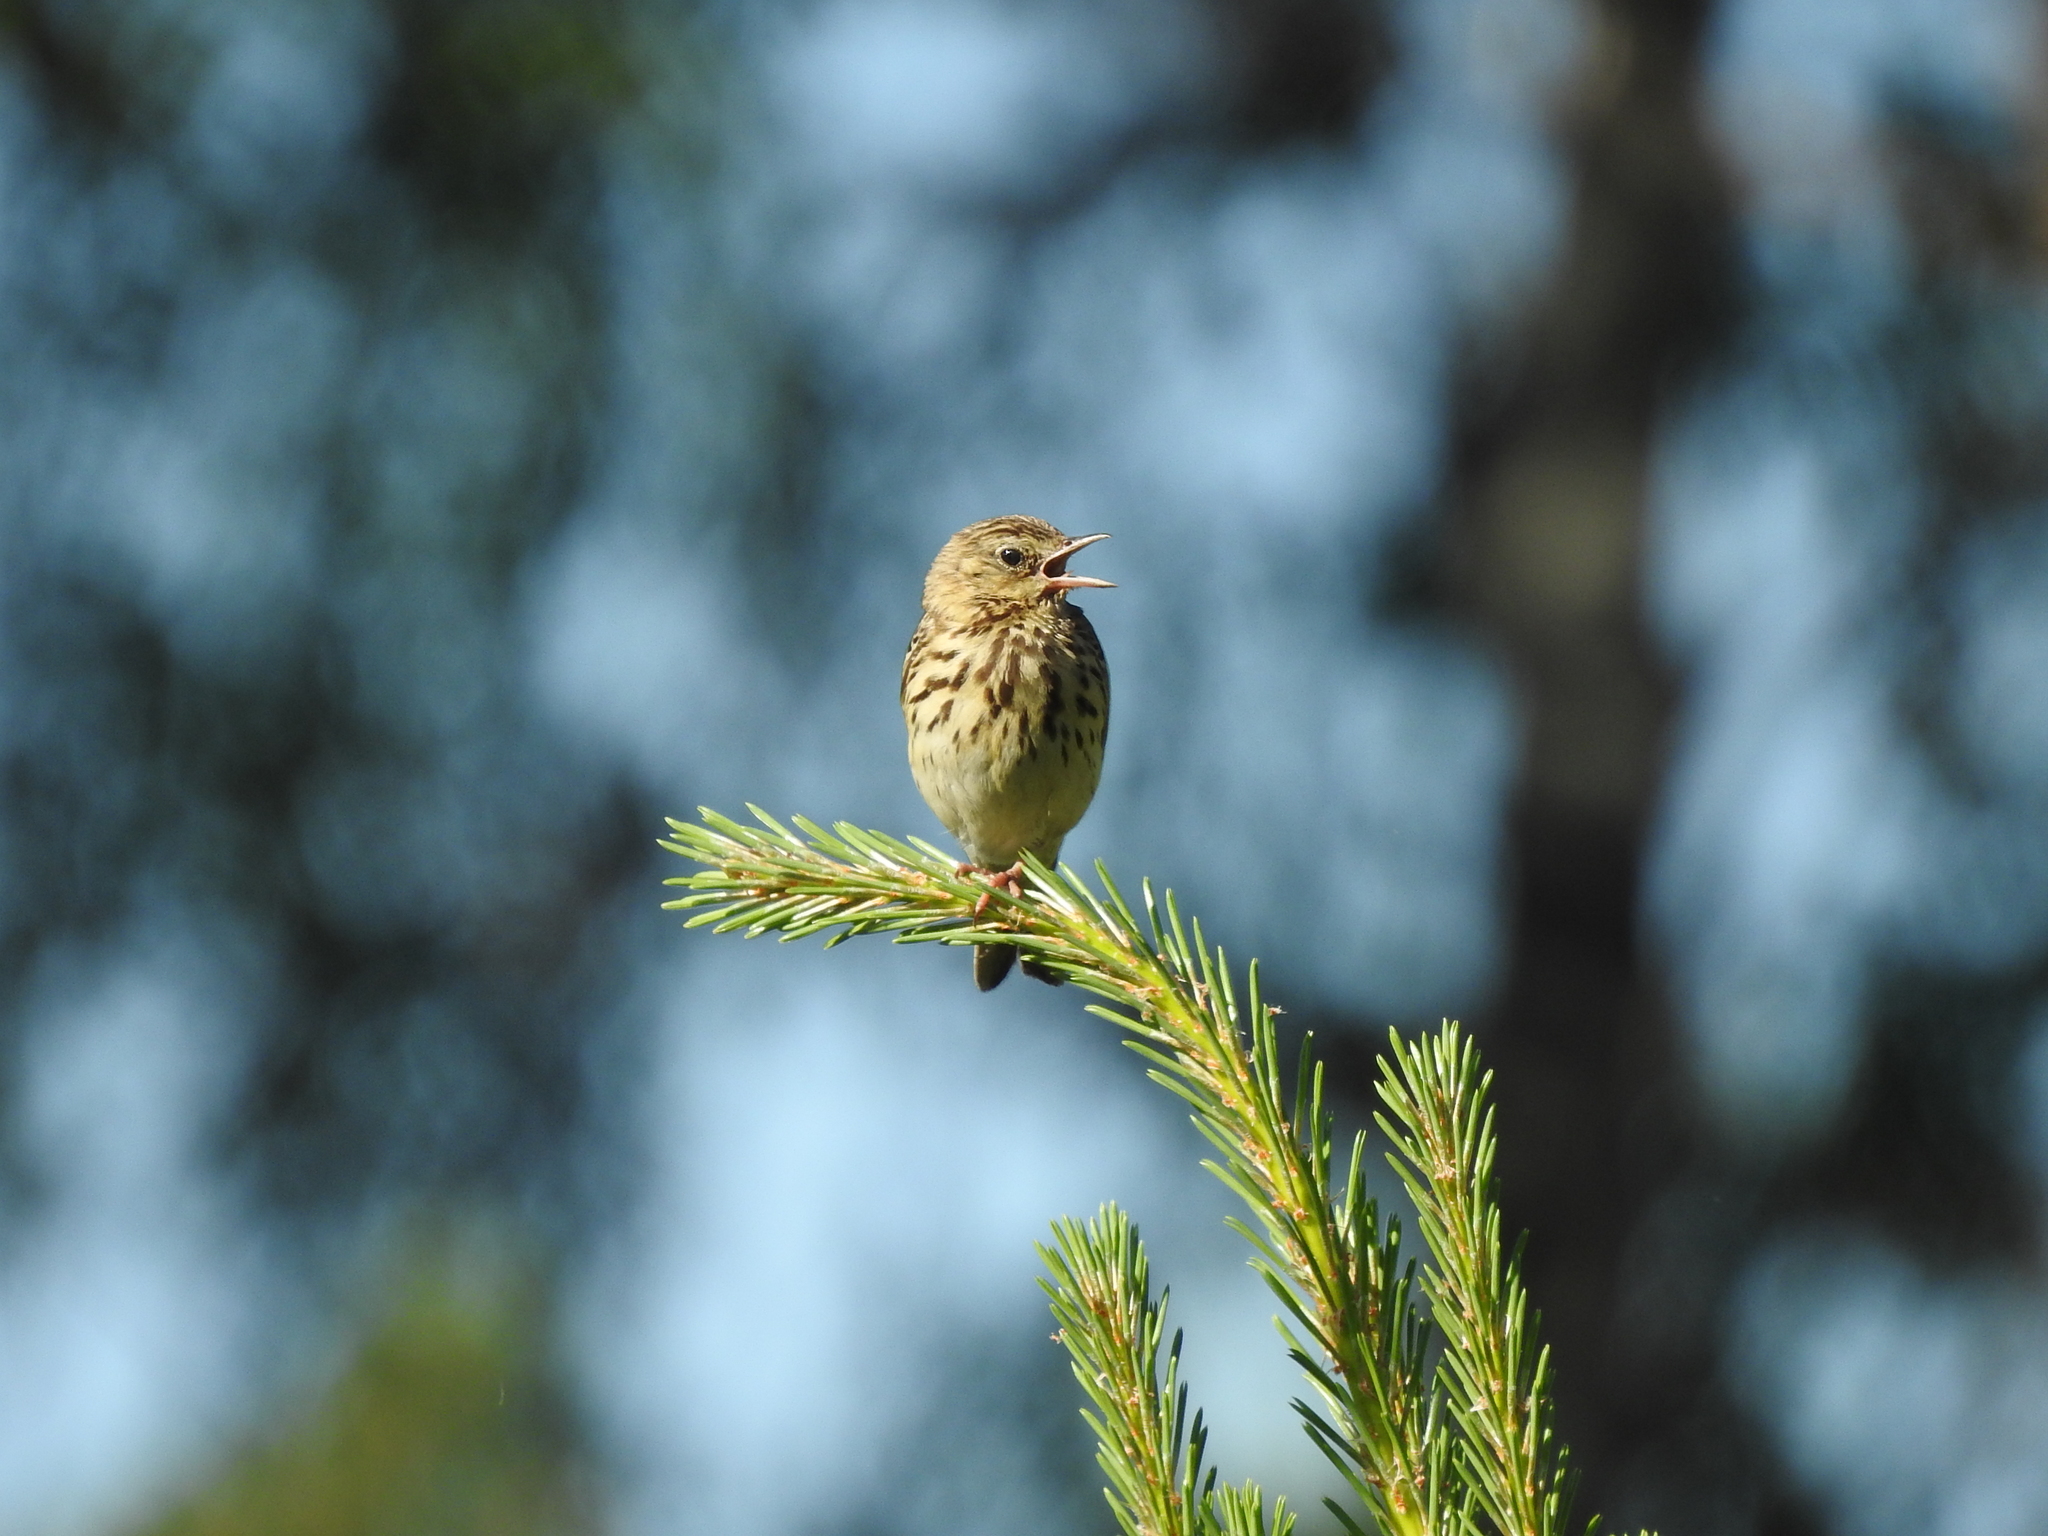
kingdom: Animalia
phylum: Chordata
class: Aves
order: Passeriformes
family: Motacillidae
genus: Anthus
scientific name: Anthus trivialis
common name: Tree pipit
